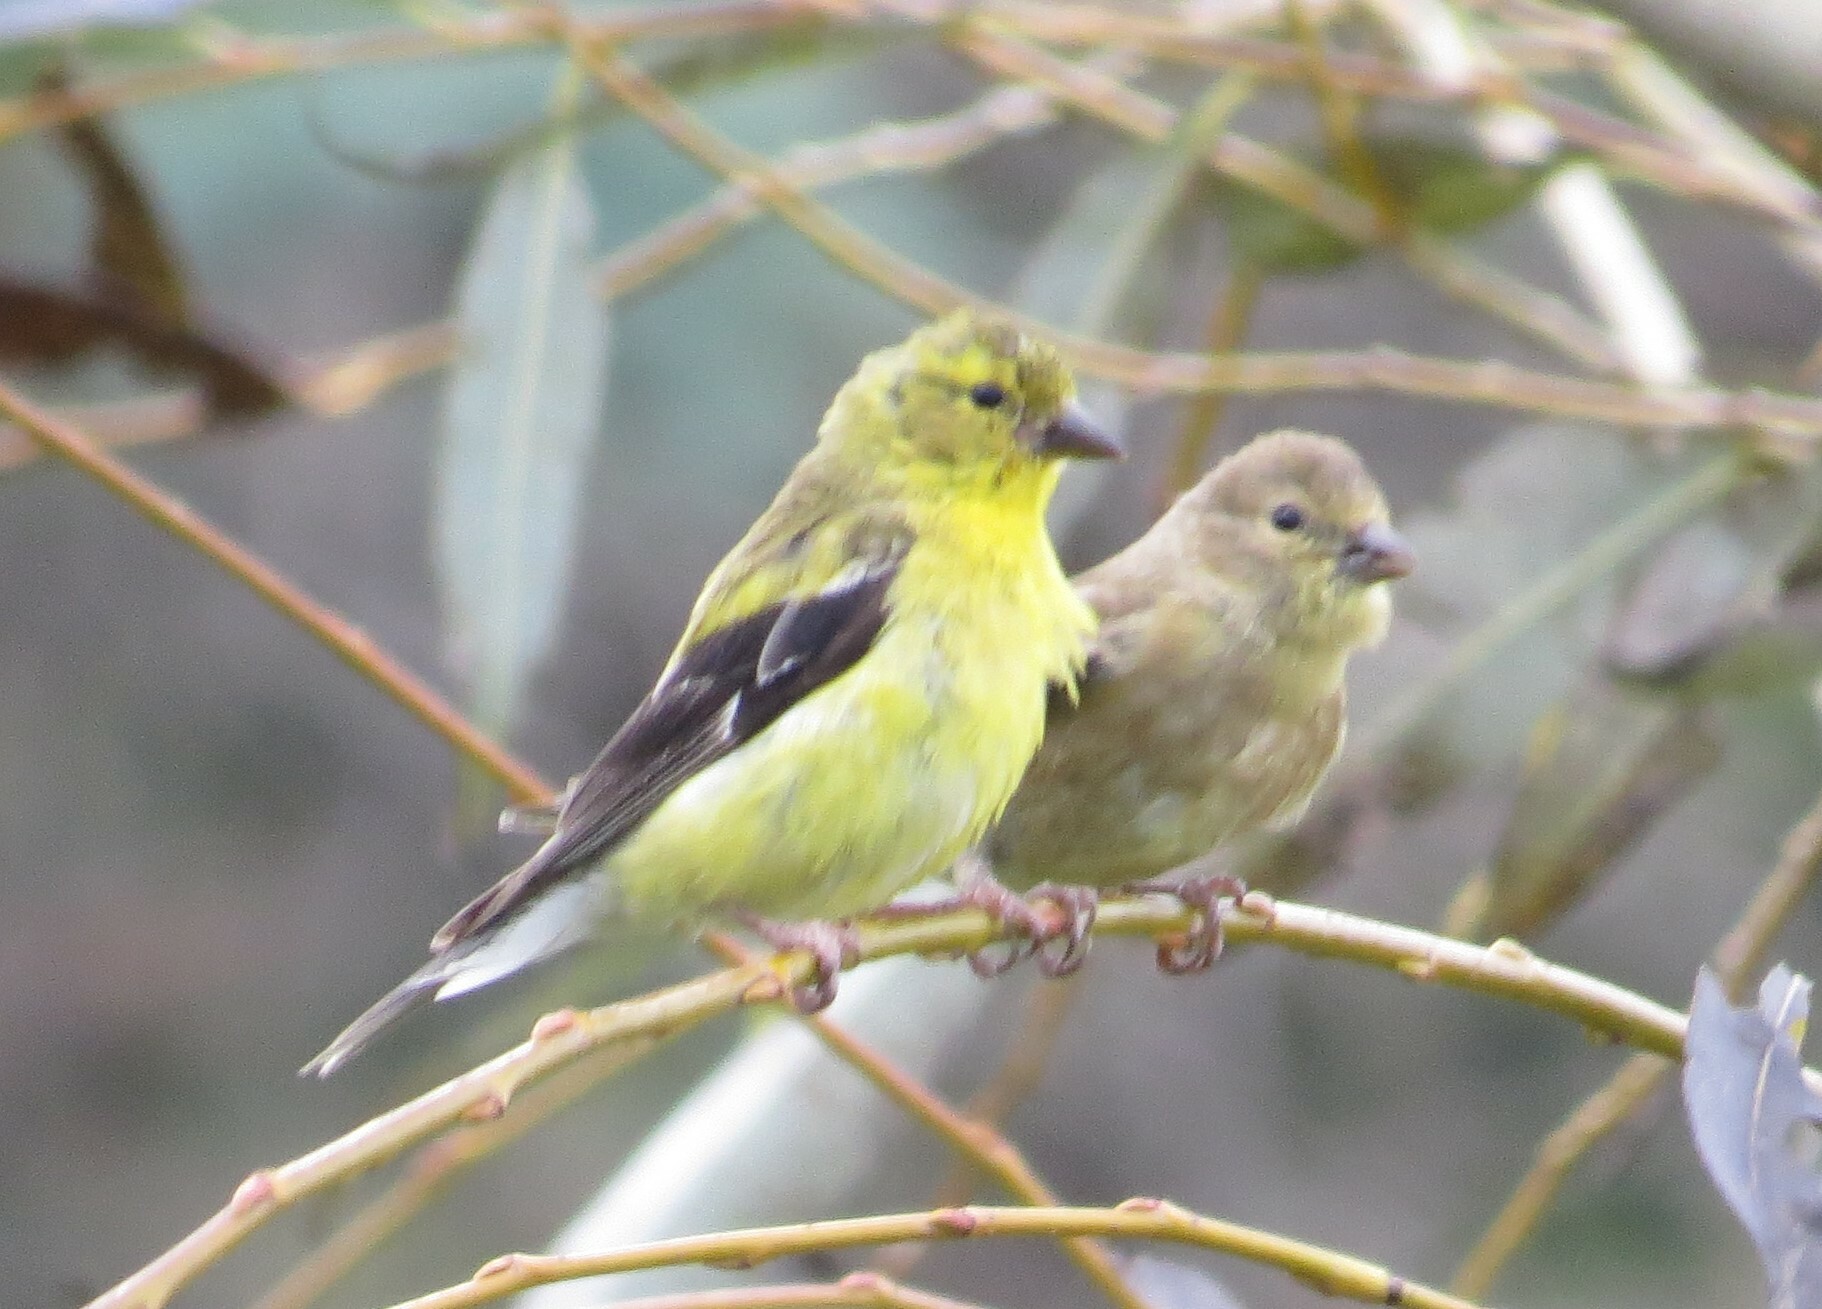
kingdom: Animalia
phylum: Chordata
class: Aves
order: Passeriformes
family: Fringillidae
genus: Spinus
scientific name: Spinus tristis
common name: American goldfinch
